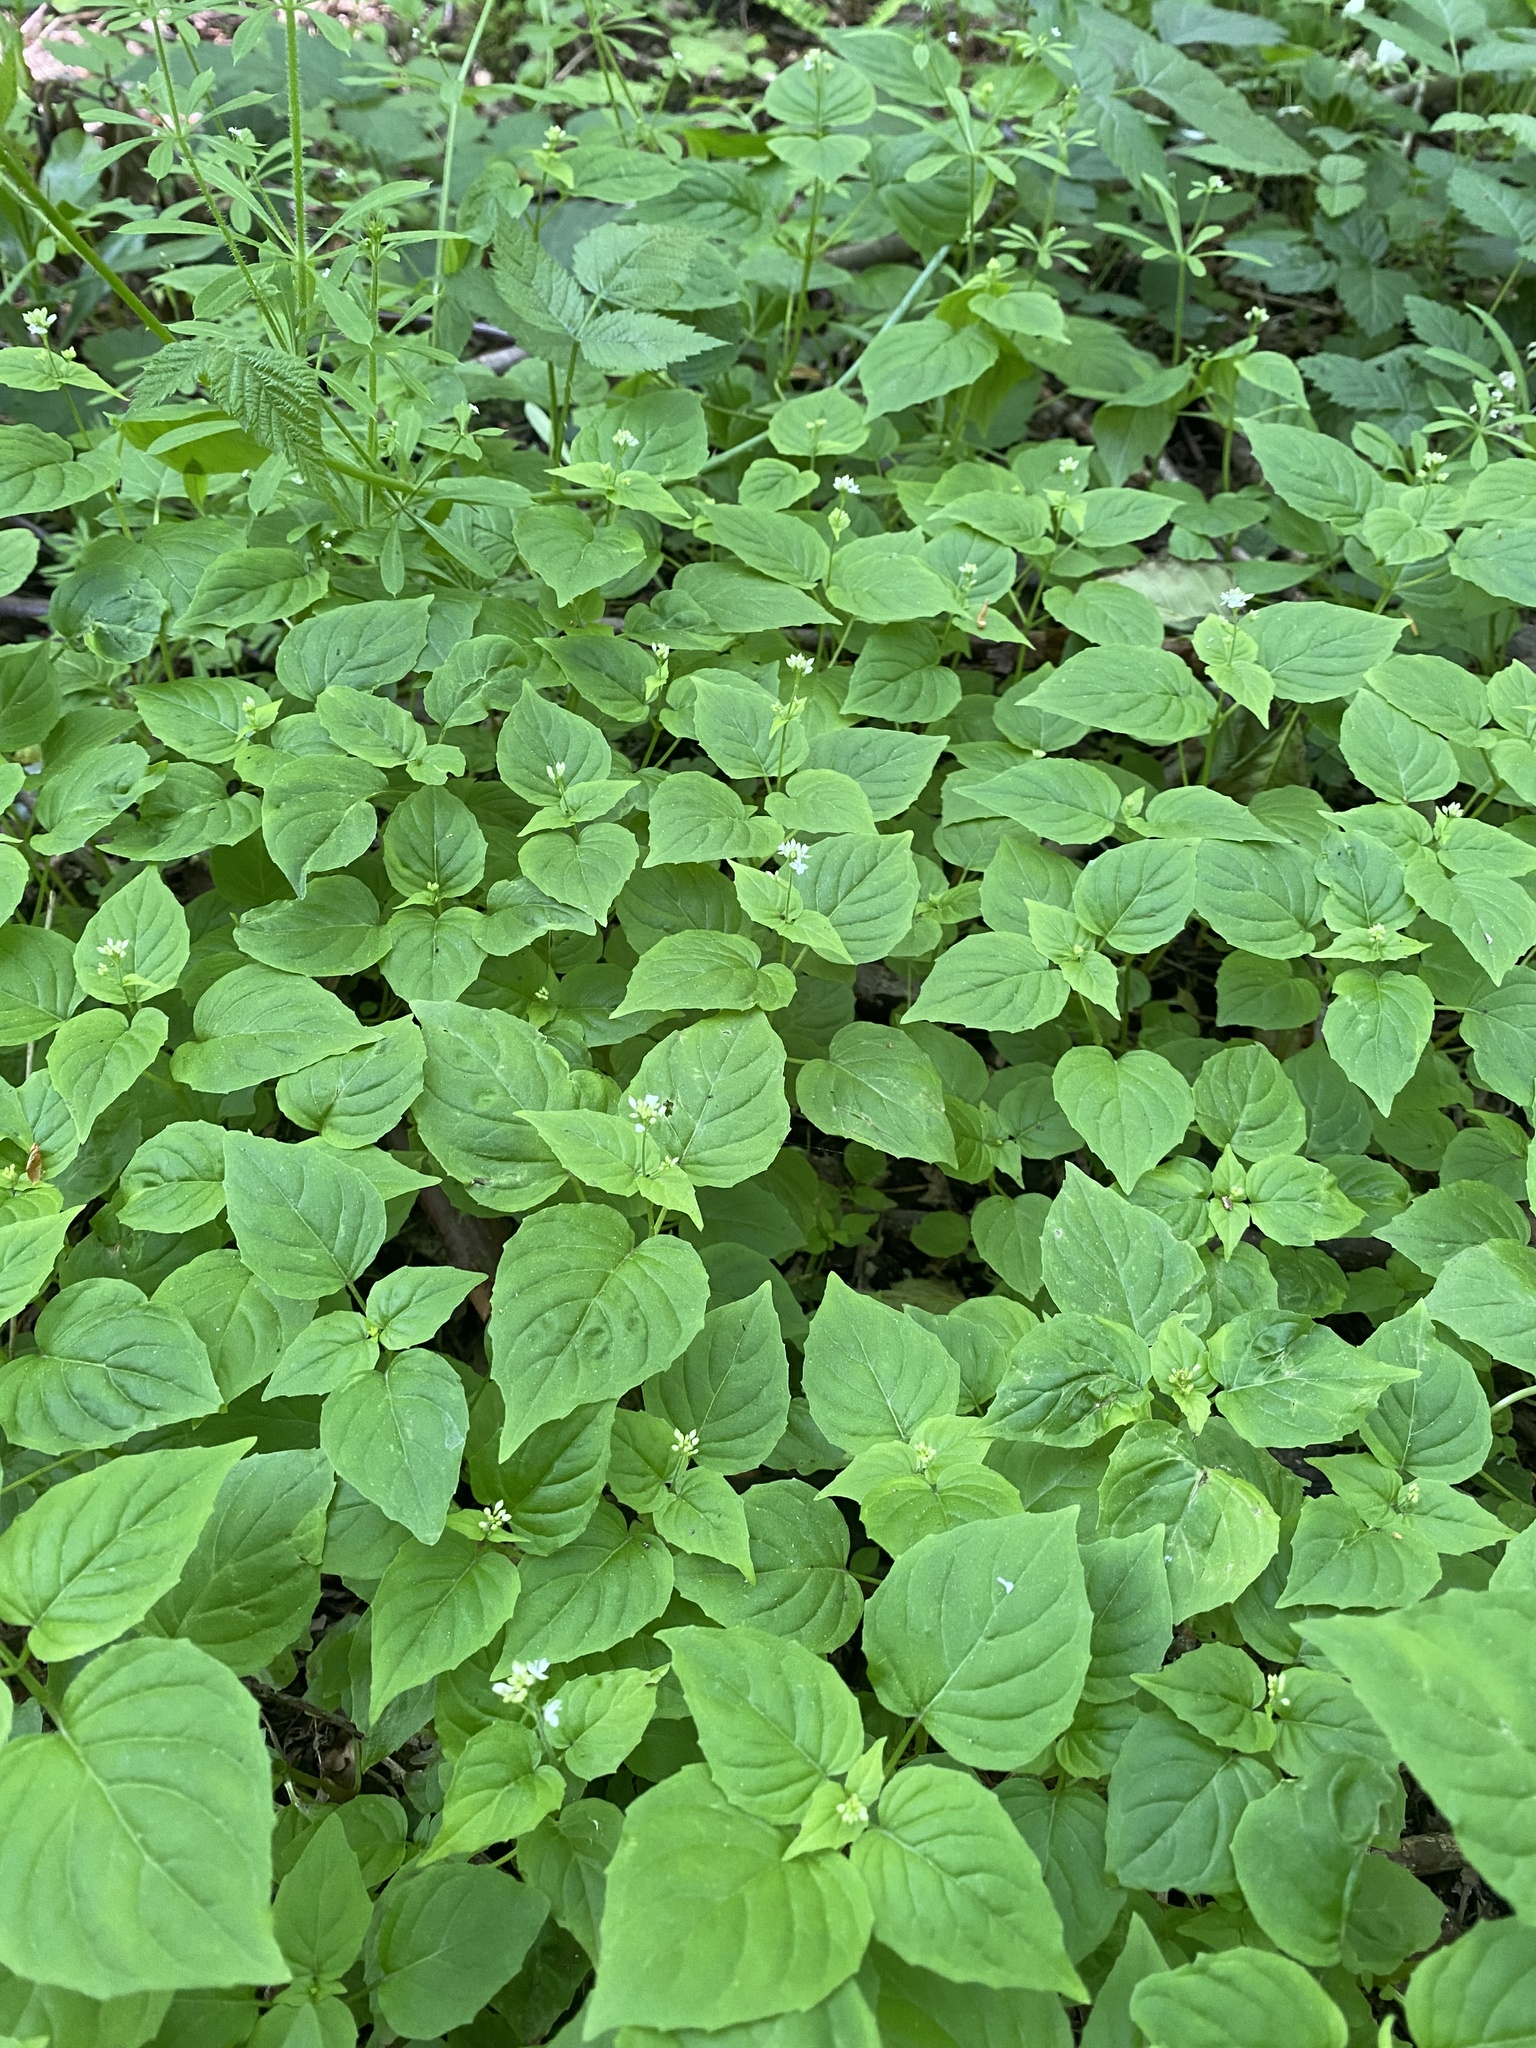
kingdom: Plantae
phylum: Tracheophyta
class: Magnoliopsida
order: Myrtales
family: Onagraceae
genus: Circaea
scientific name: Circaea alpina
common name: Alpine enchanter's-nightshade
